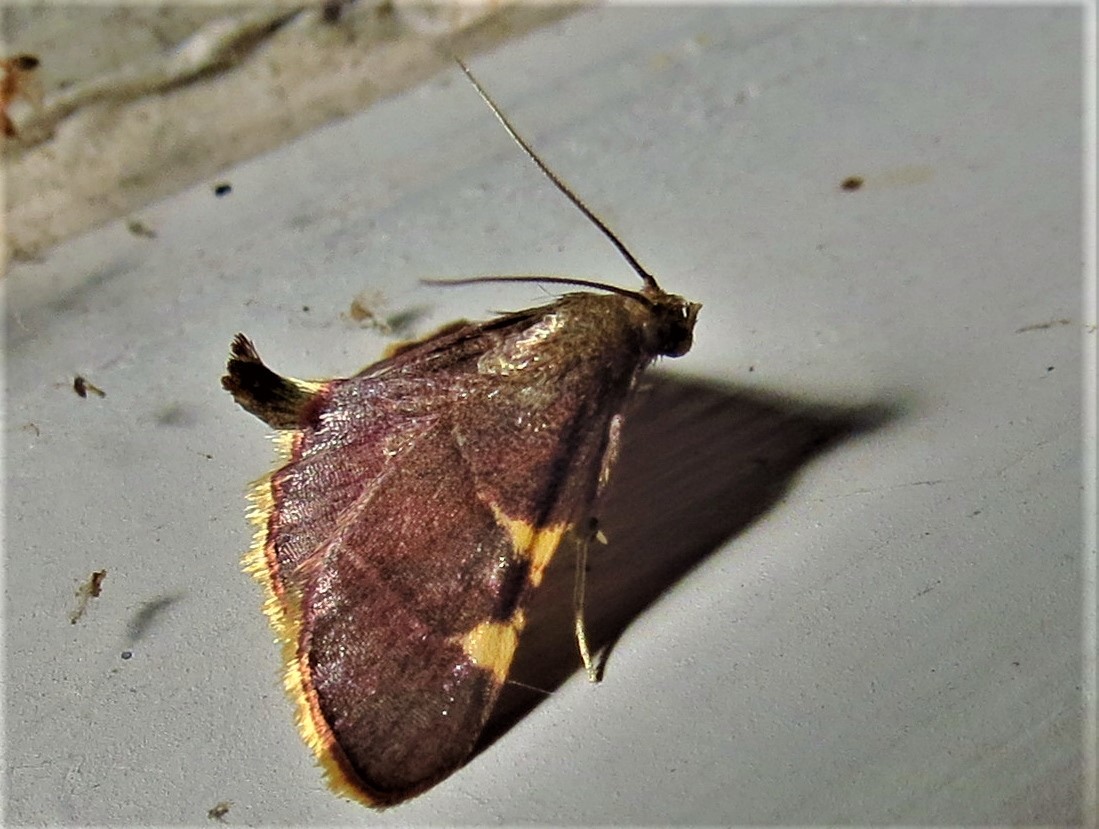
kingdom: Animalia
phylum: Arthropoda
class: Insecta
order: Lepidoptera
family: Pyralidae
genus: Hypsopygia
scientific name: Hypsopygia olinalis
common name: Yellow-fringed dolichomia moth
